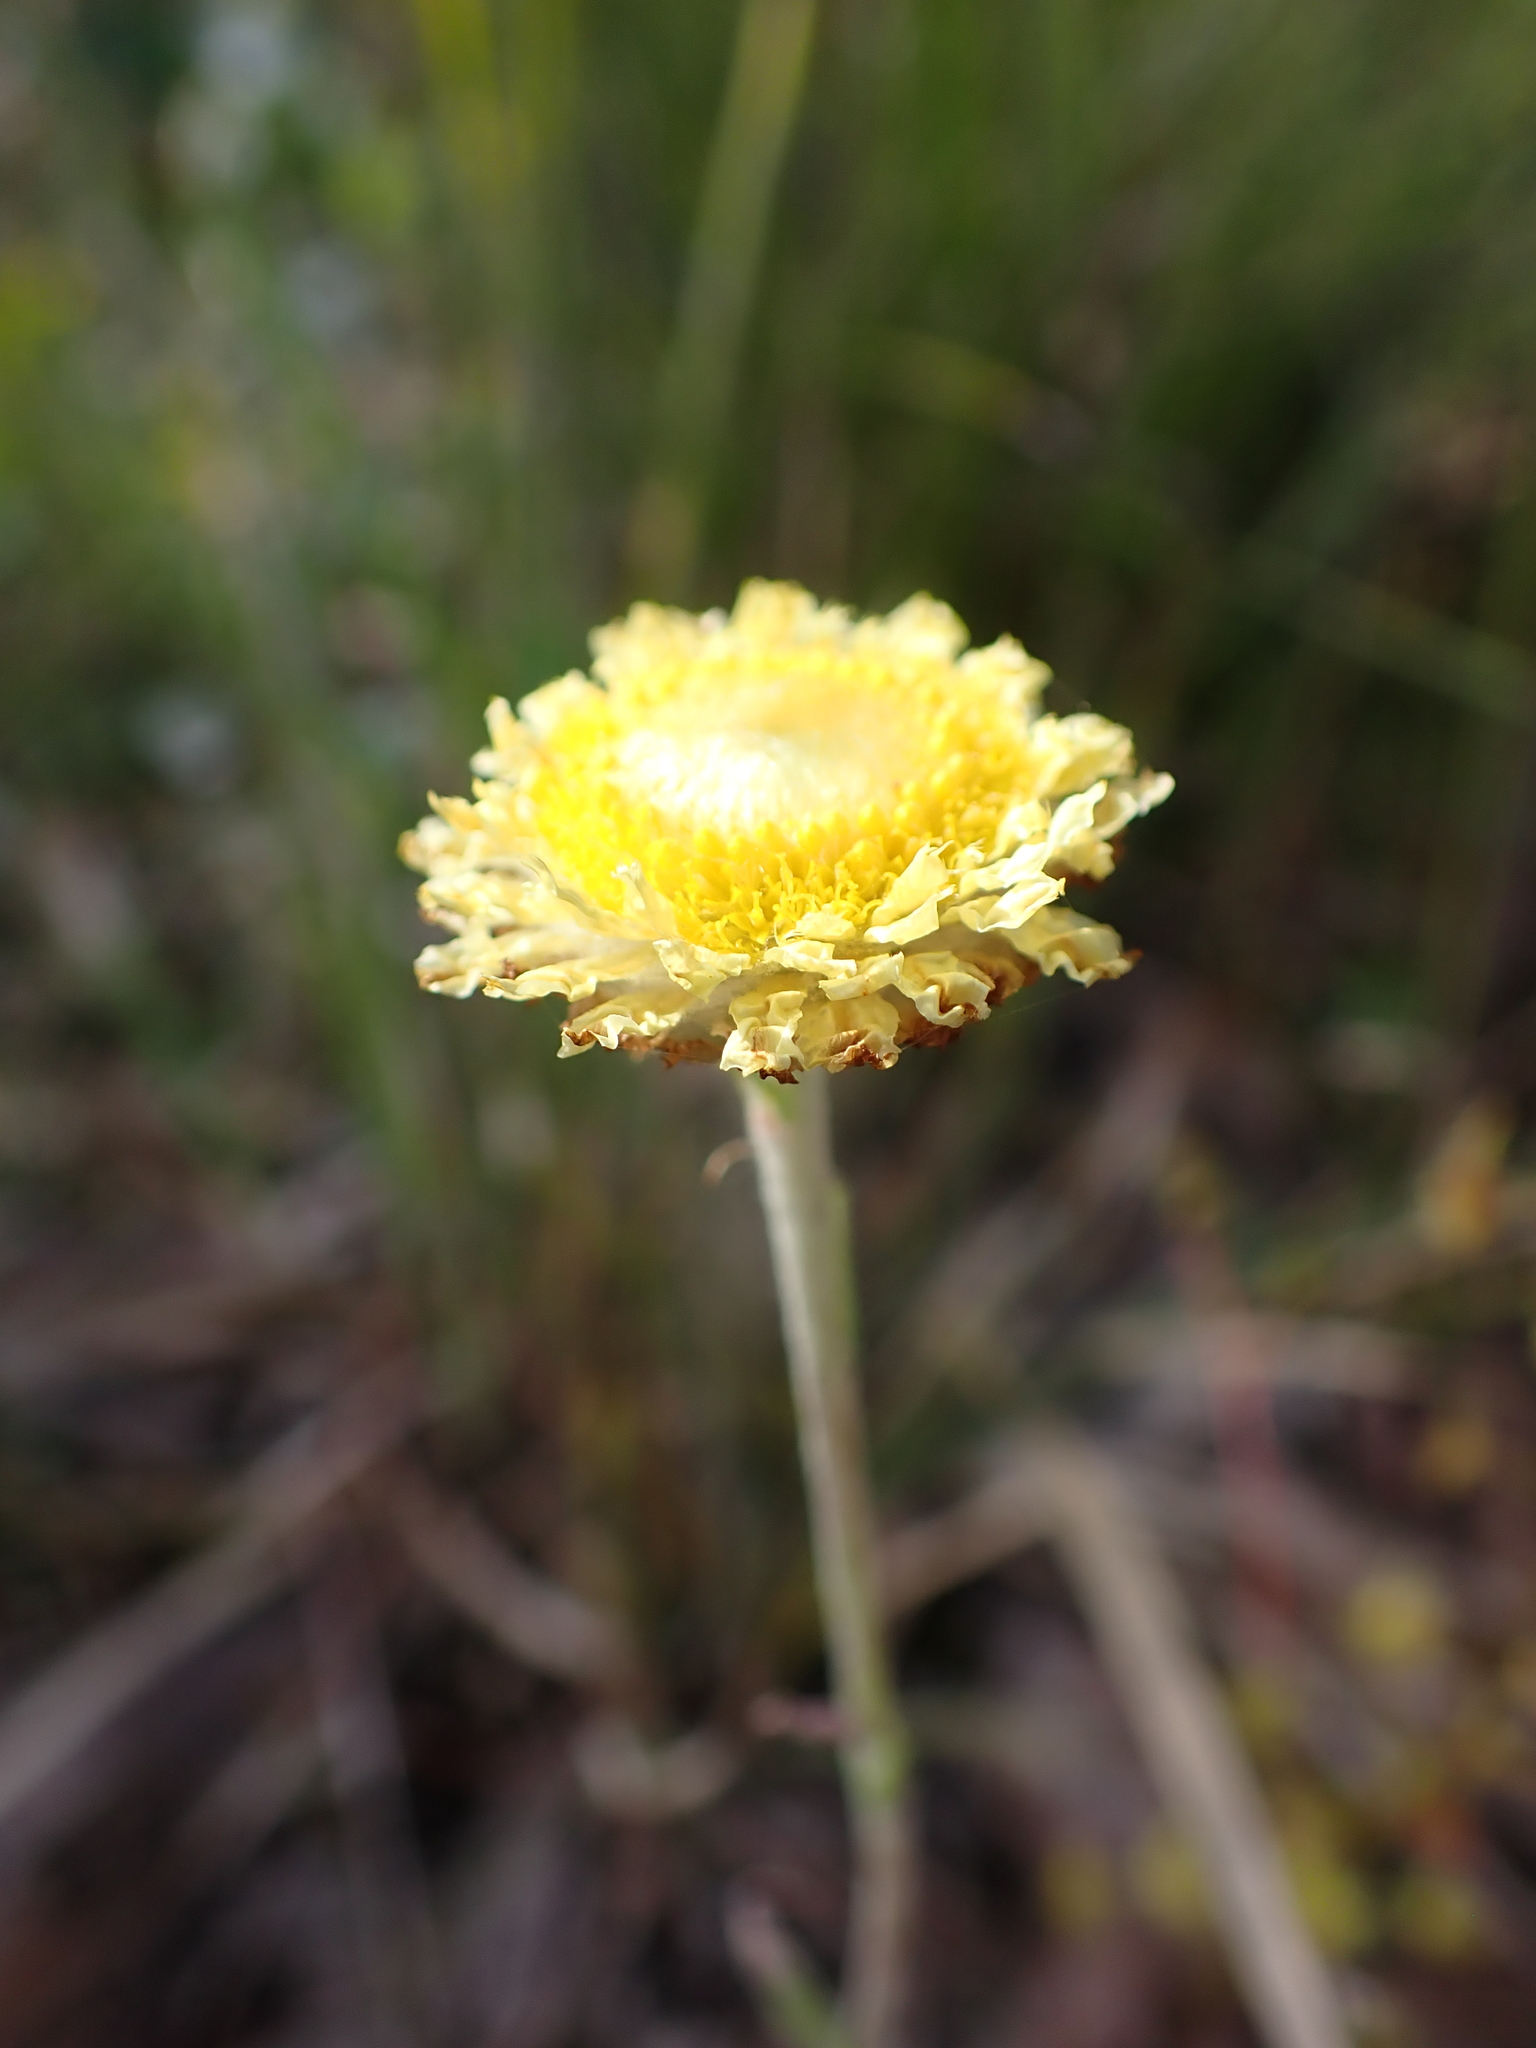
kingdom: Plantae
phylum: Tracheophyta
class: Magnoliopsida
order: Asterales
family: Asteraceae
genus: Coronidium
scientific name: Coronidium scorpioides
